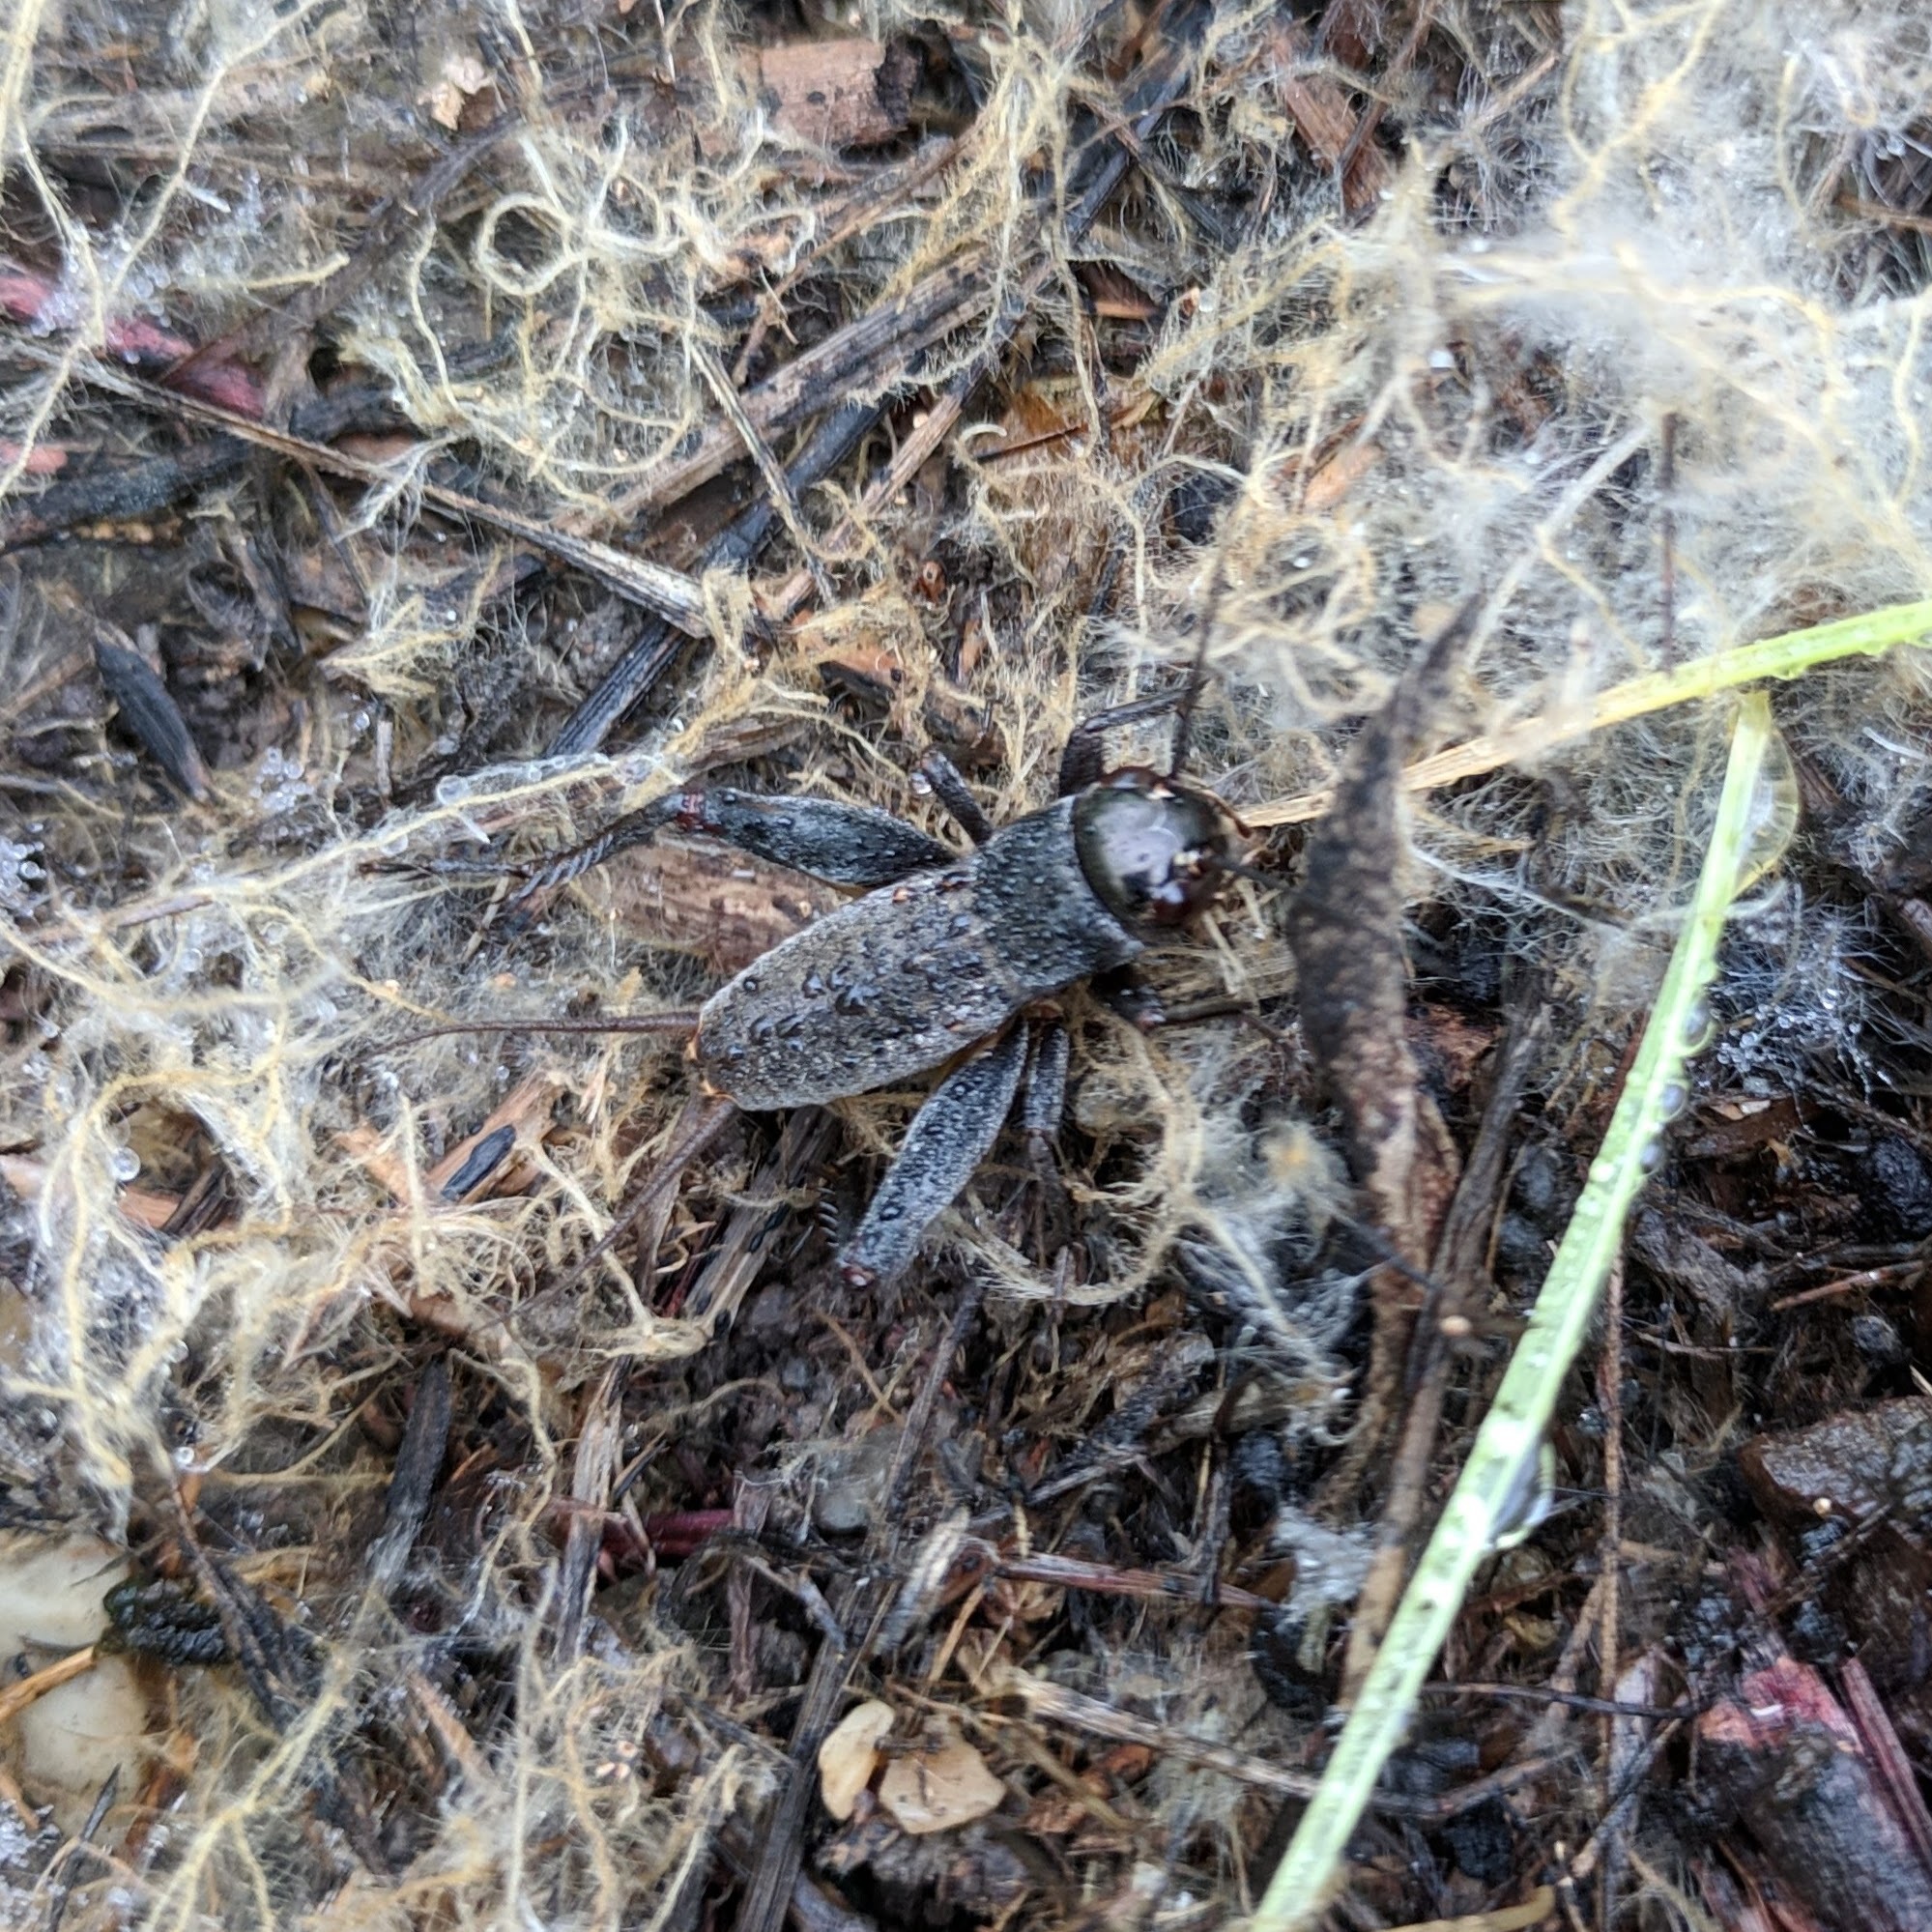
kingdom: Animalia
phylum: Arthropoda
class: Insecta
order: Orthoptera
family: Gryllidae
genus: Gryllus
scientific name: Gryllus
